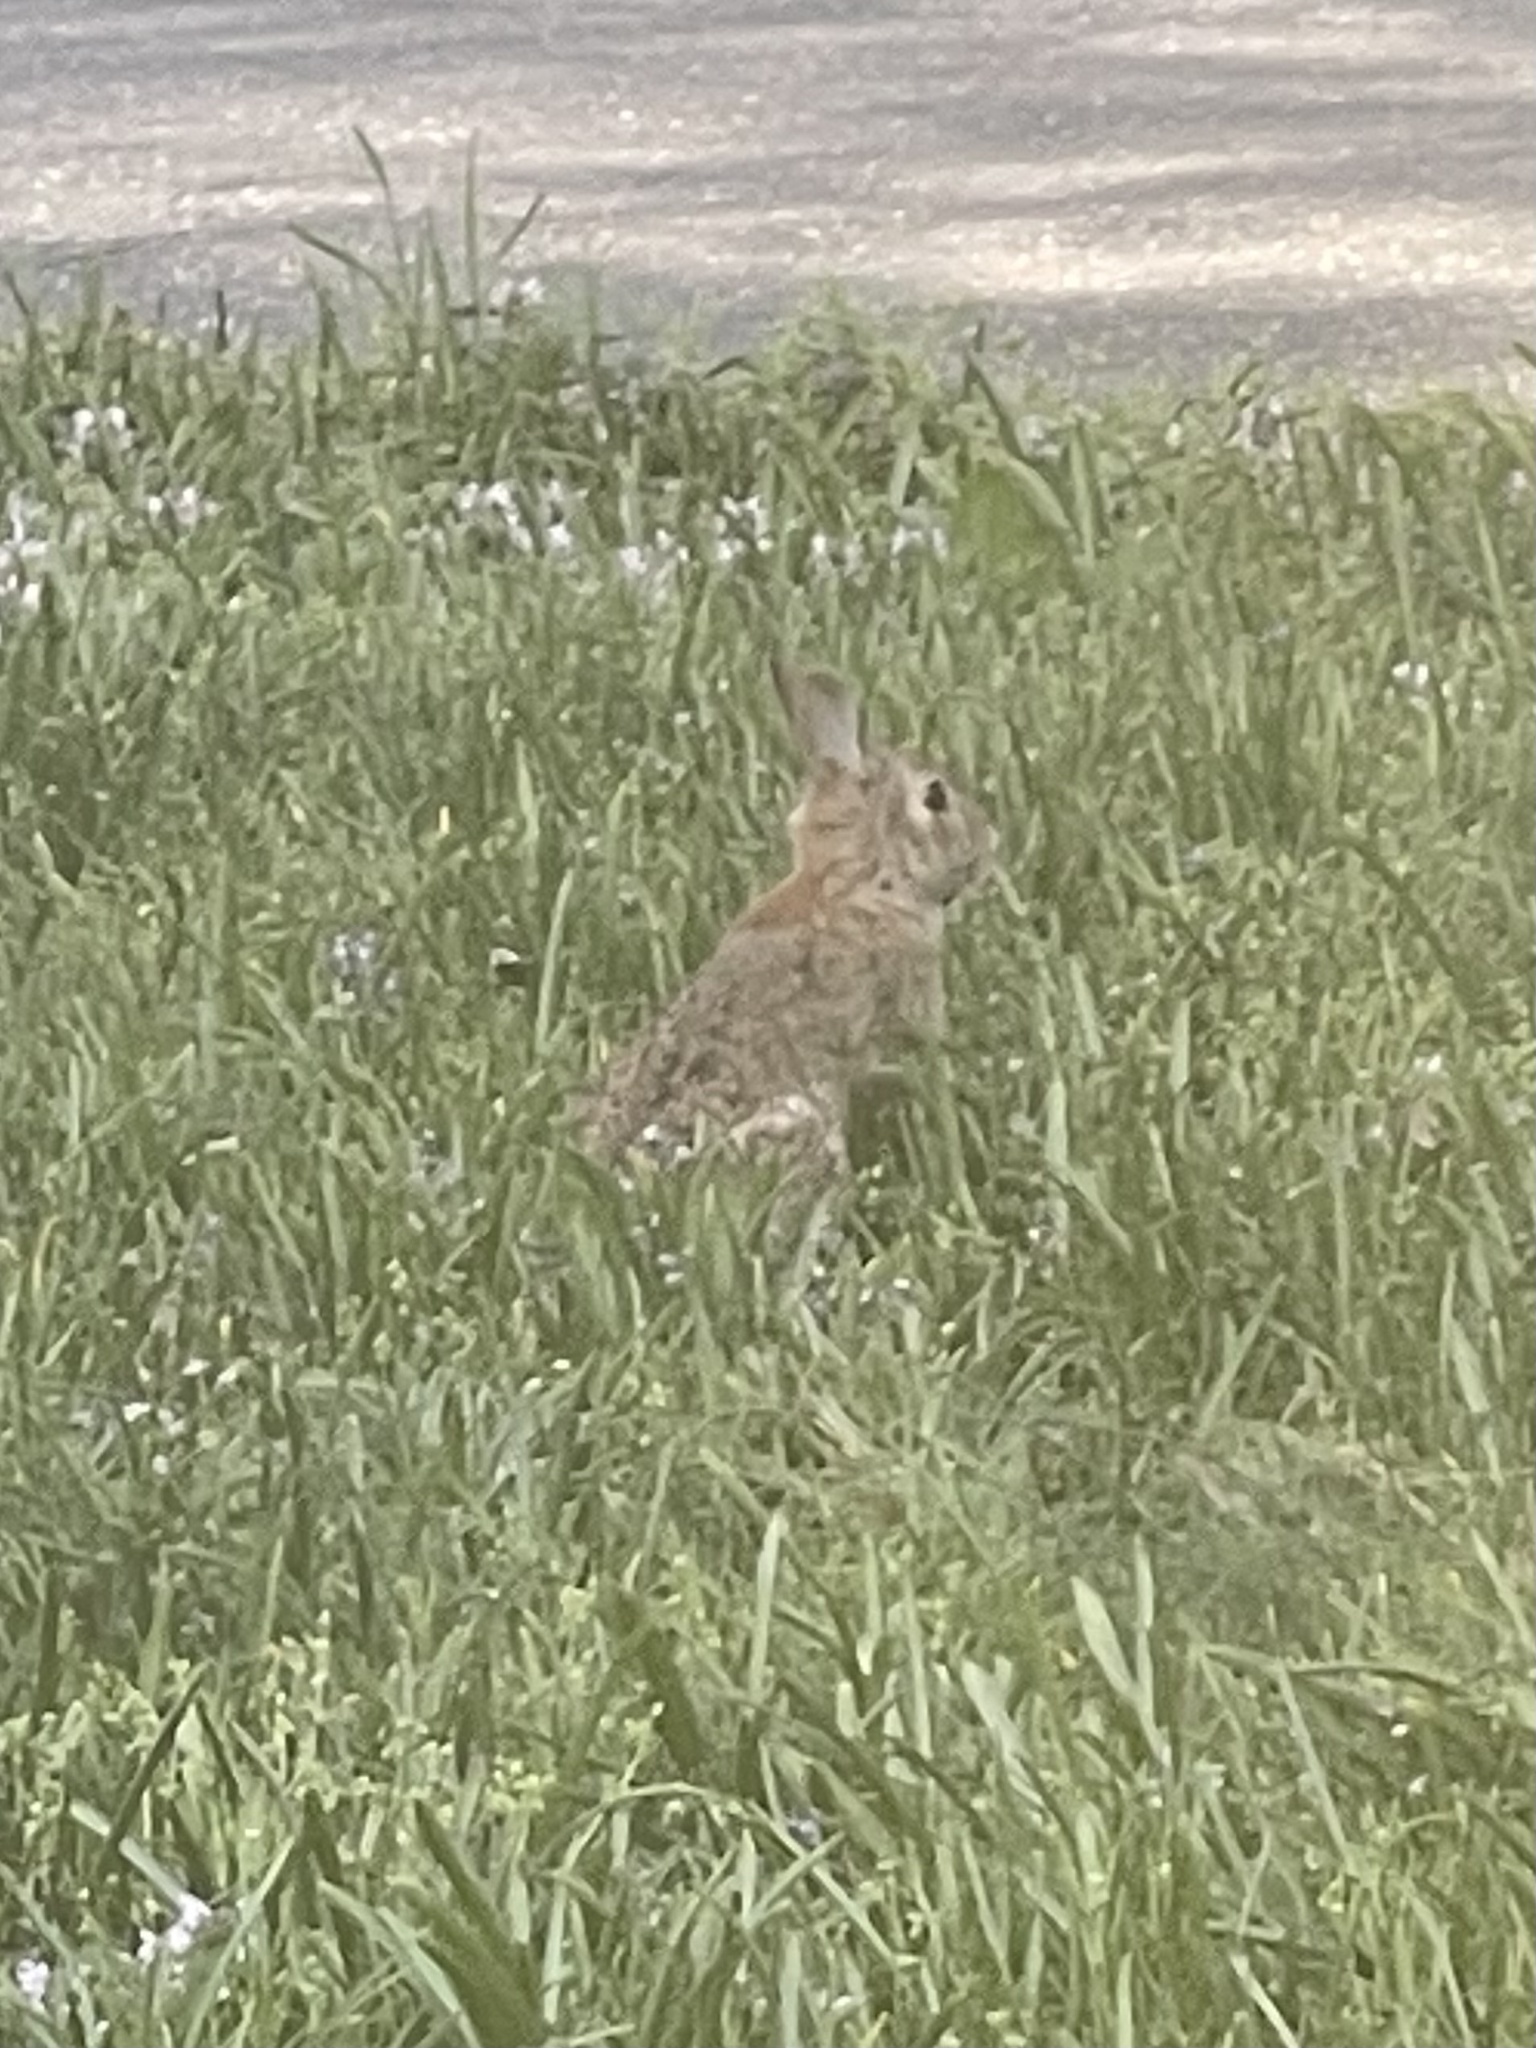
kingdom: Animalia
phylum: Chordata
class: Mammalia
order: Lagomorpha
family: Leporidae
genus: Sylvilagus
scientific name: Sylvilagus floridanus
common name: Eastern cottontail
